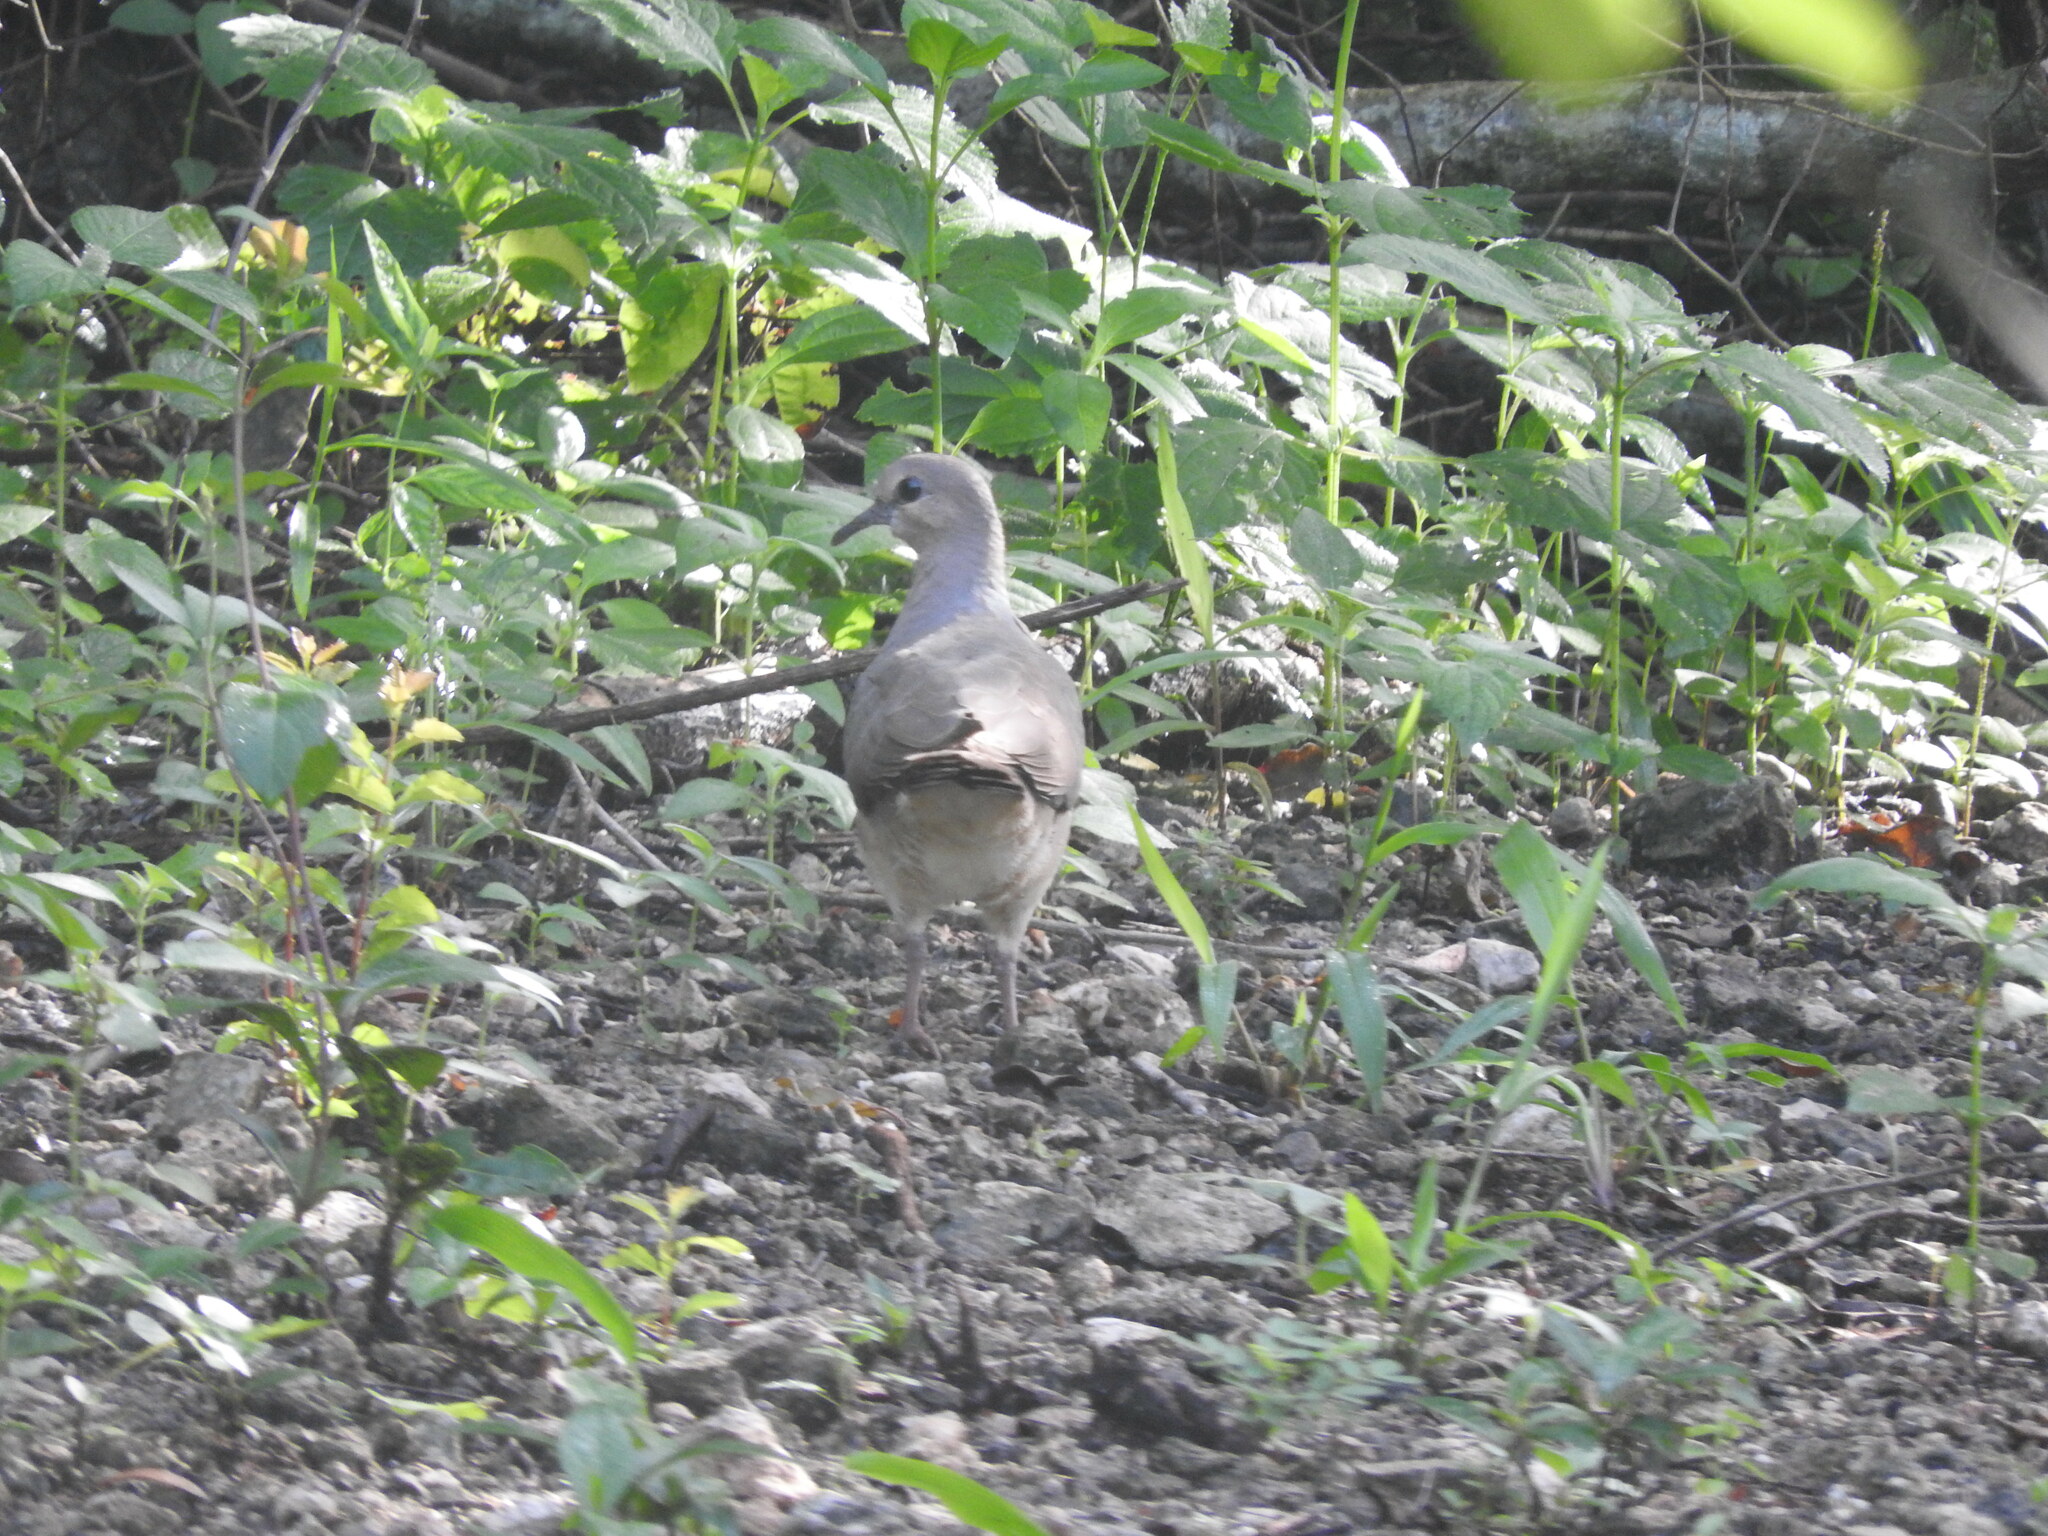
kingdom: Animalia
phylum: Chordata
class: Aves
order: Columbiformes
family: Columbidae
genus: Leptotila
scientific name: Leptotila verreauxi
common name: White-tipped dove
